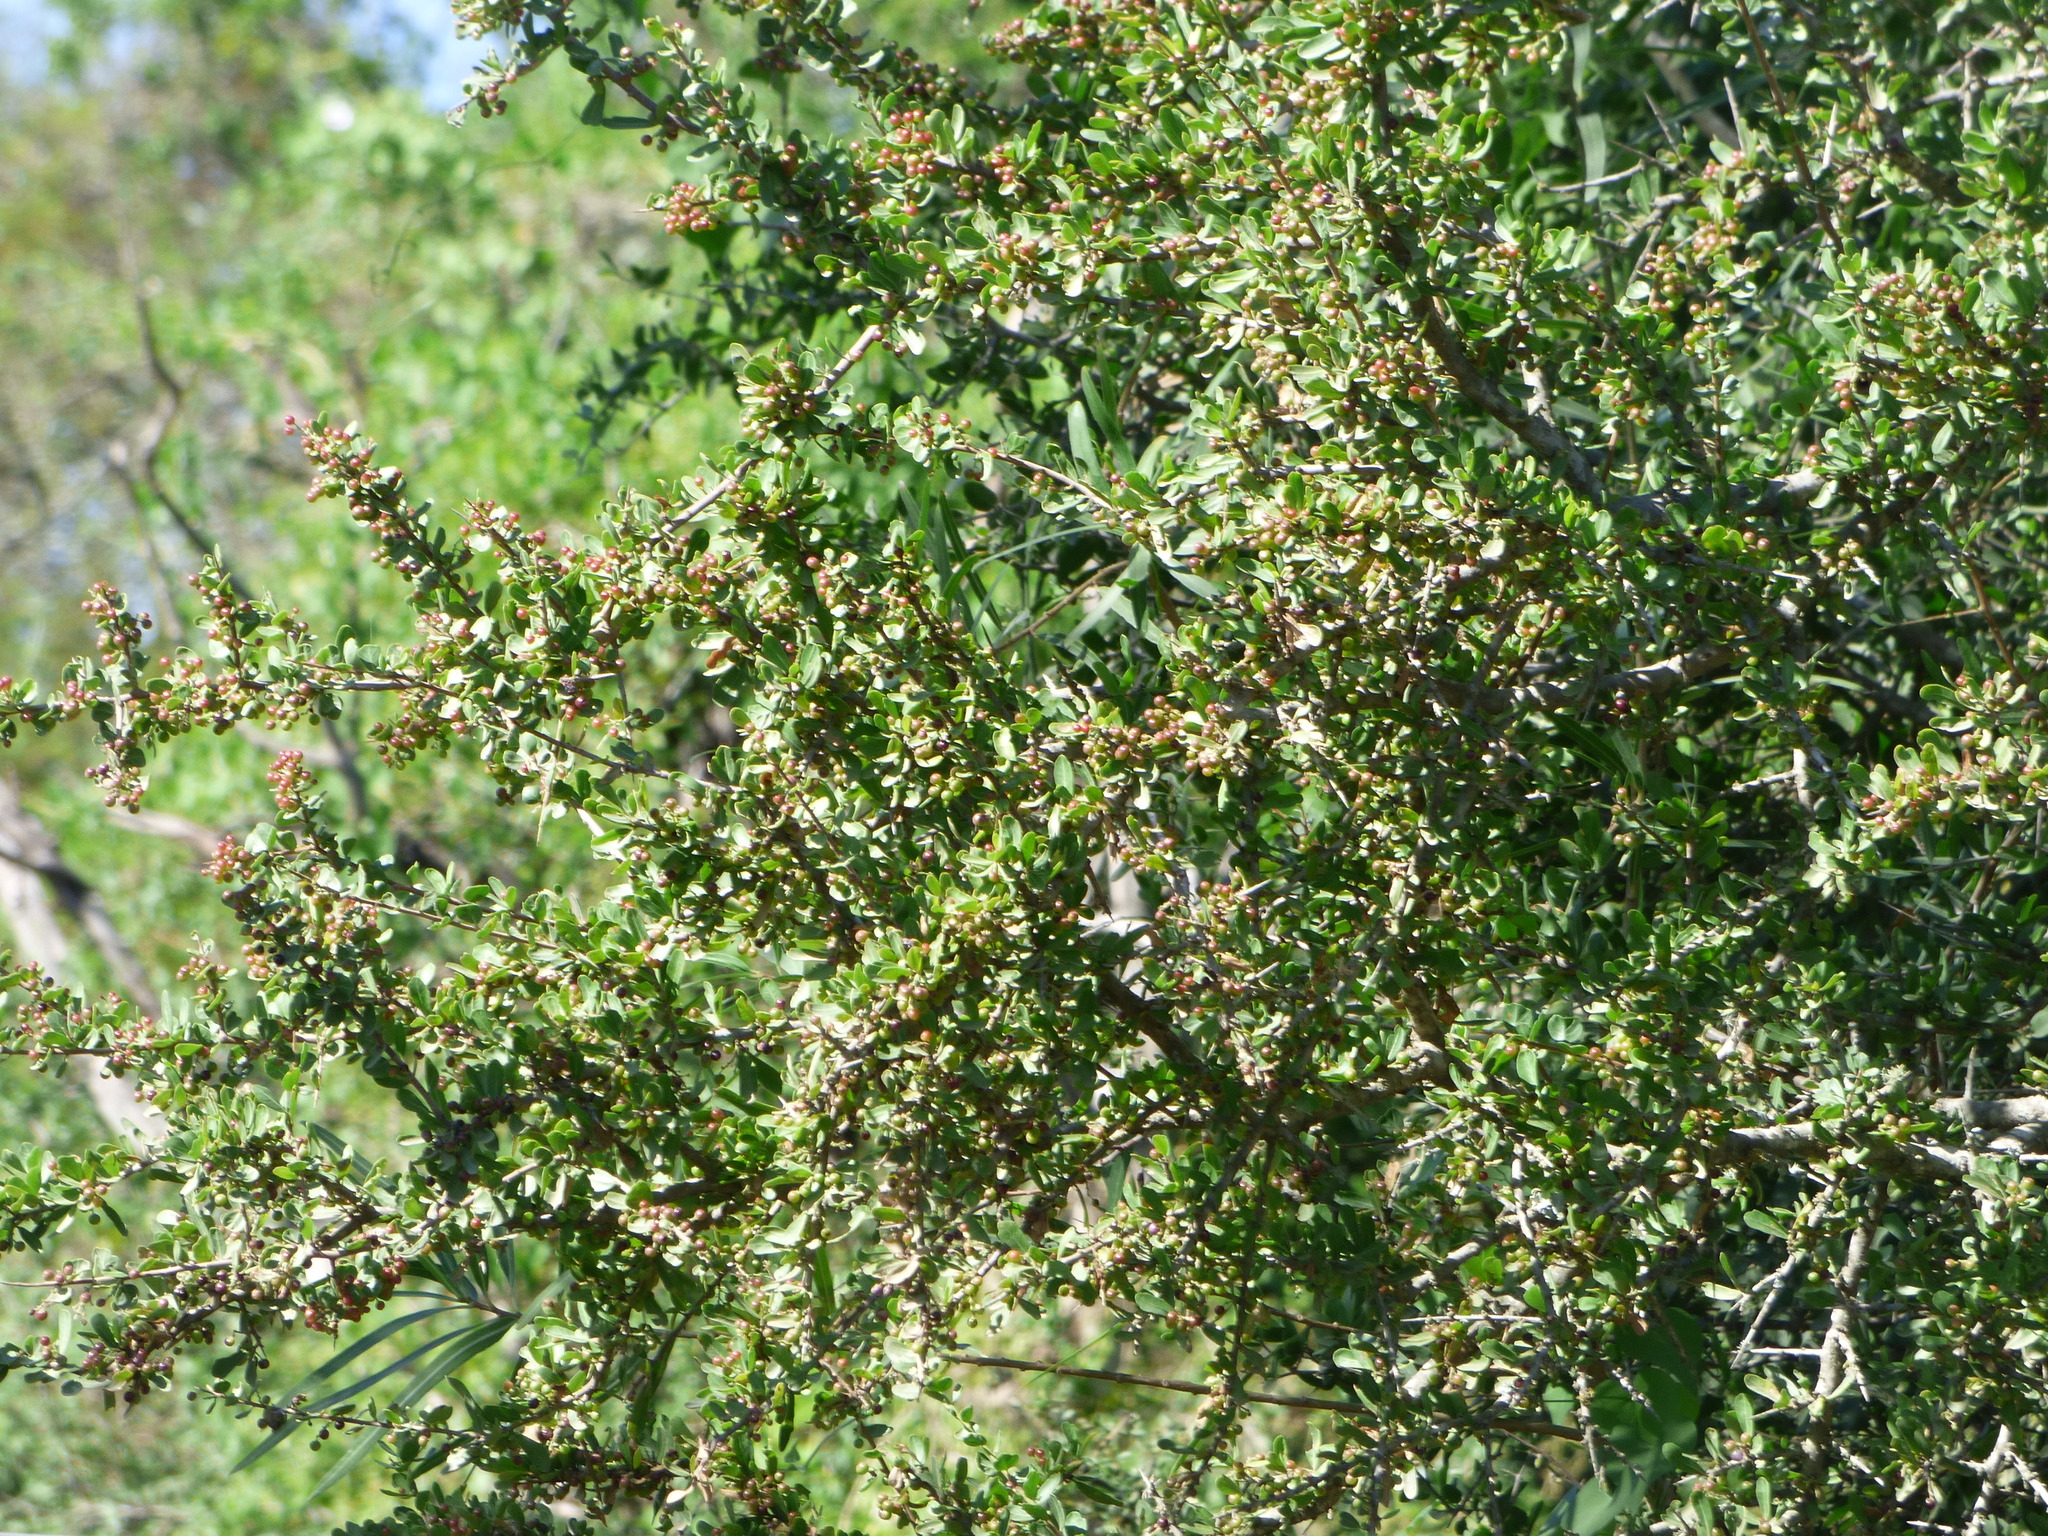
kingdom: Plantae
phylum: Tracheophyta
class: Magnoliopsida
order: Sapindales
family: Anacardiaceae
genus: Schinus
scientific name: Schinus fasciculata
